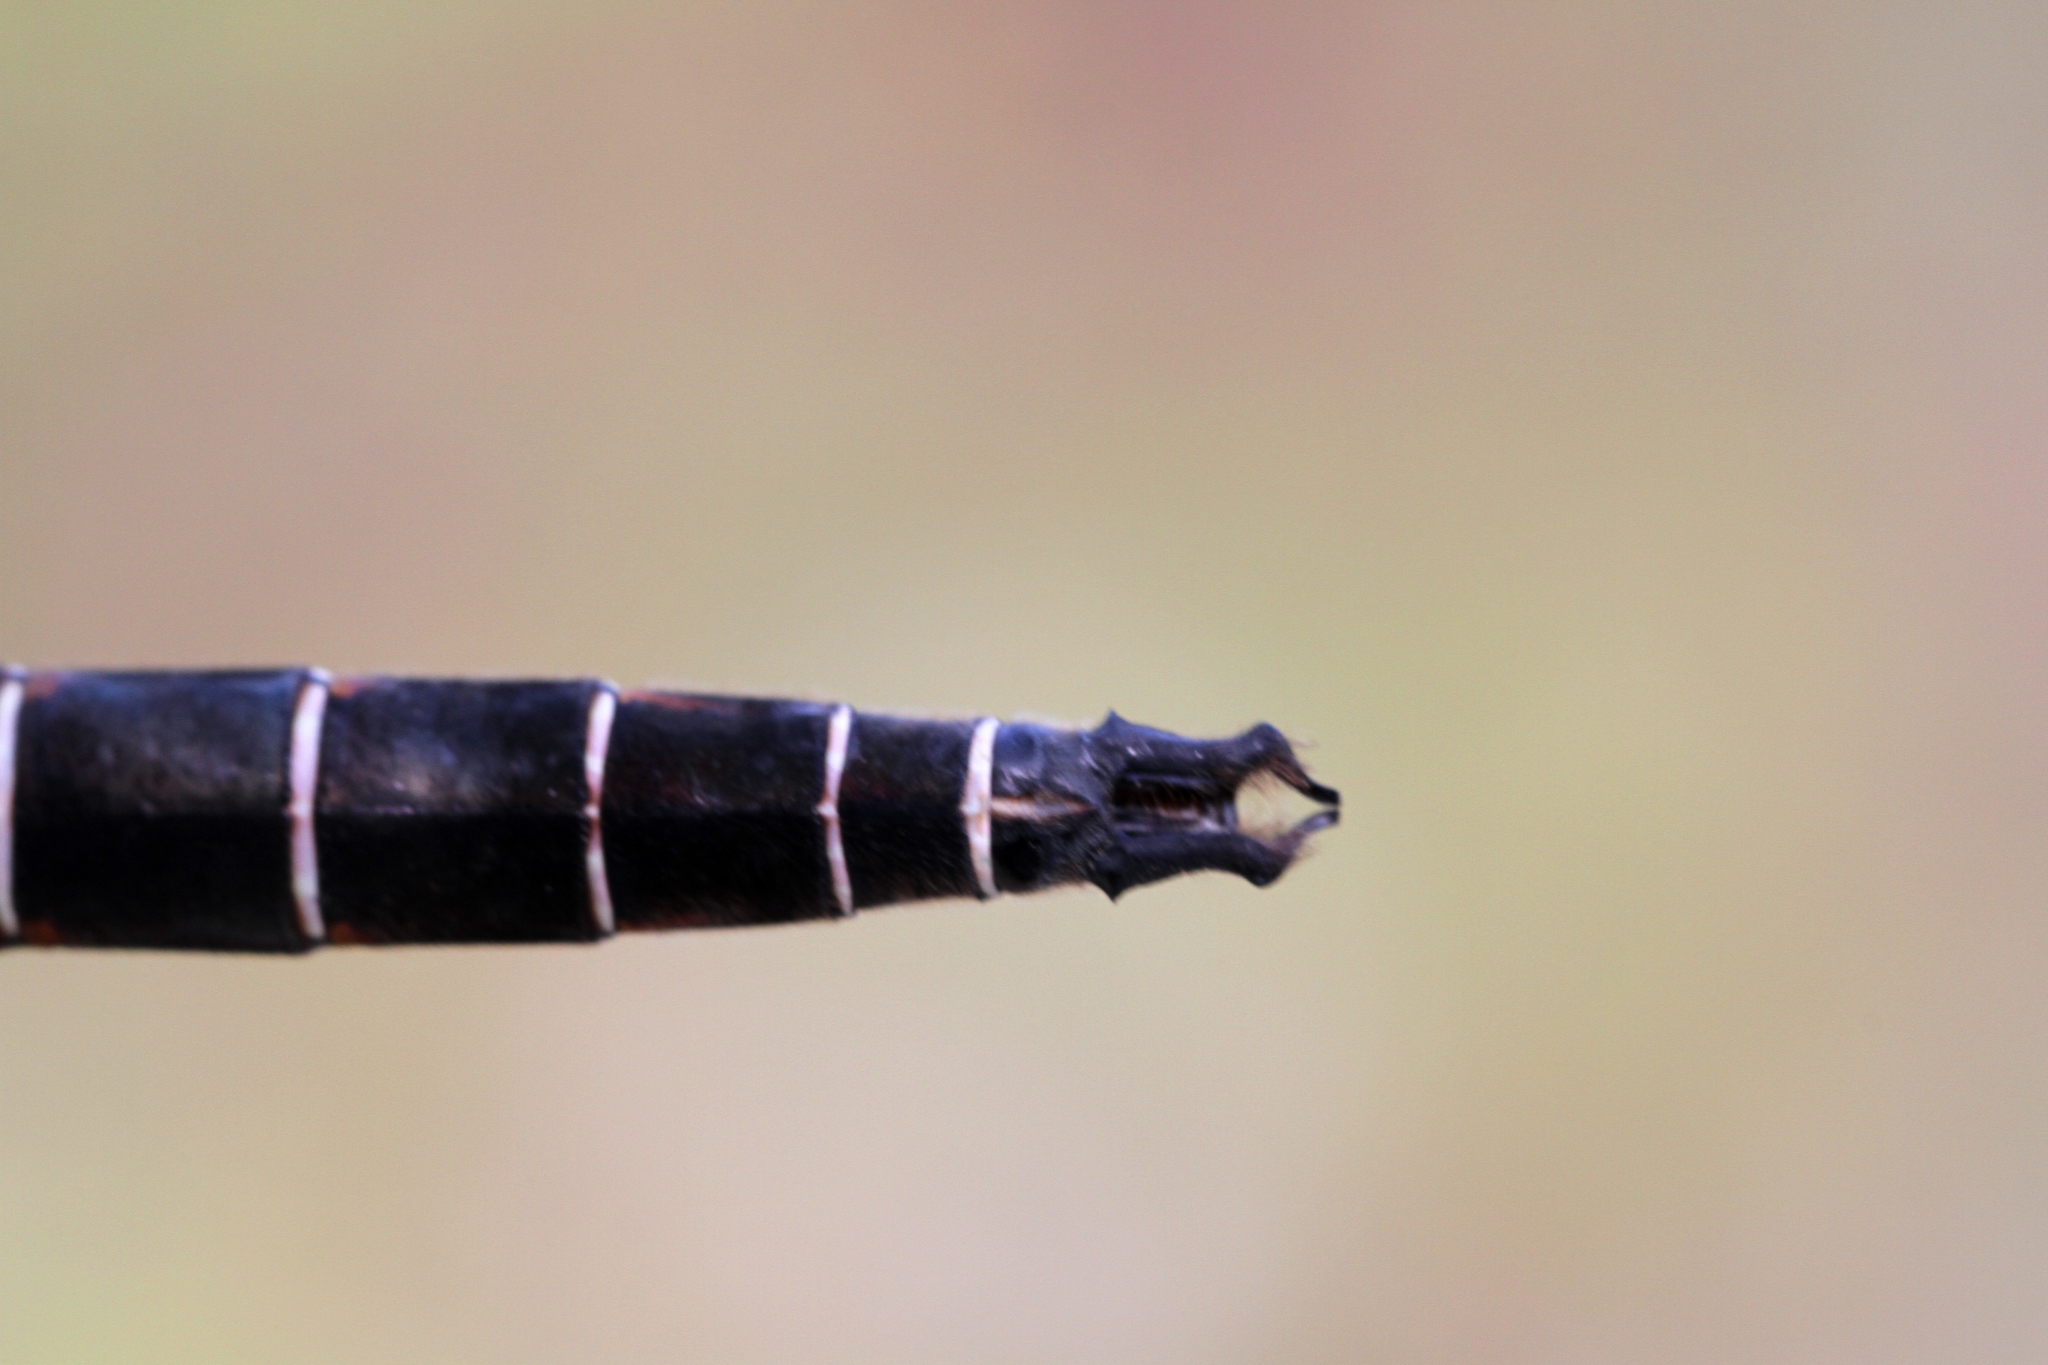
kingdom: Animalia
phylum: Arthropoda
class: Insecta
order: Odonata
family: Corduliidae
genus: Somatochlora
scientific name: Somatochlora cingulata
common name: Lake emerald
